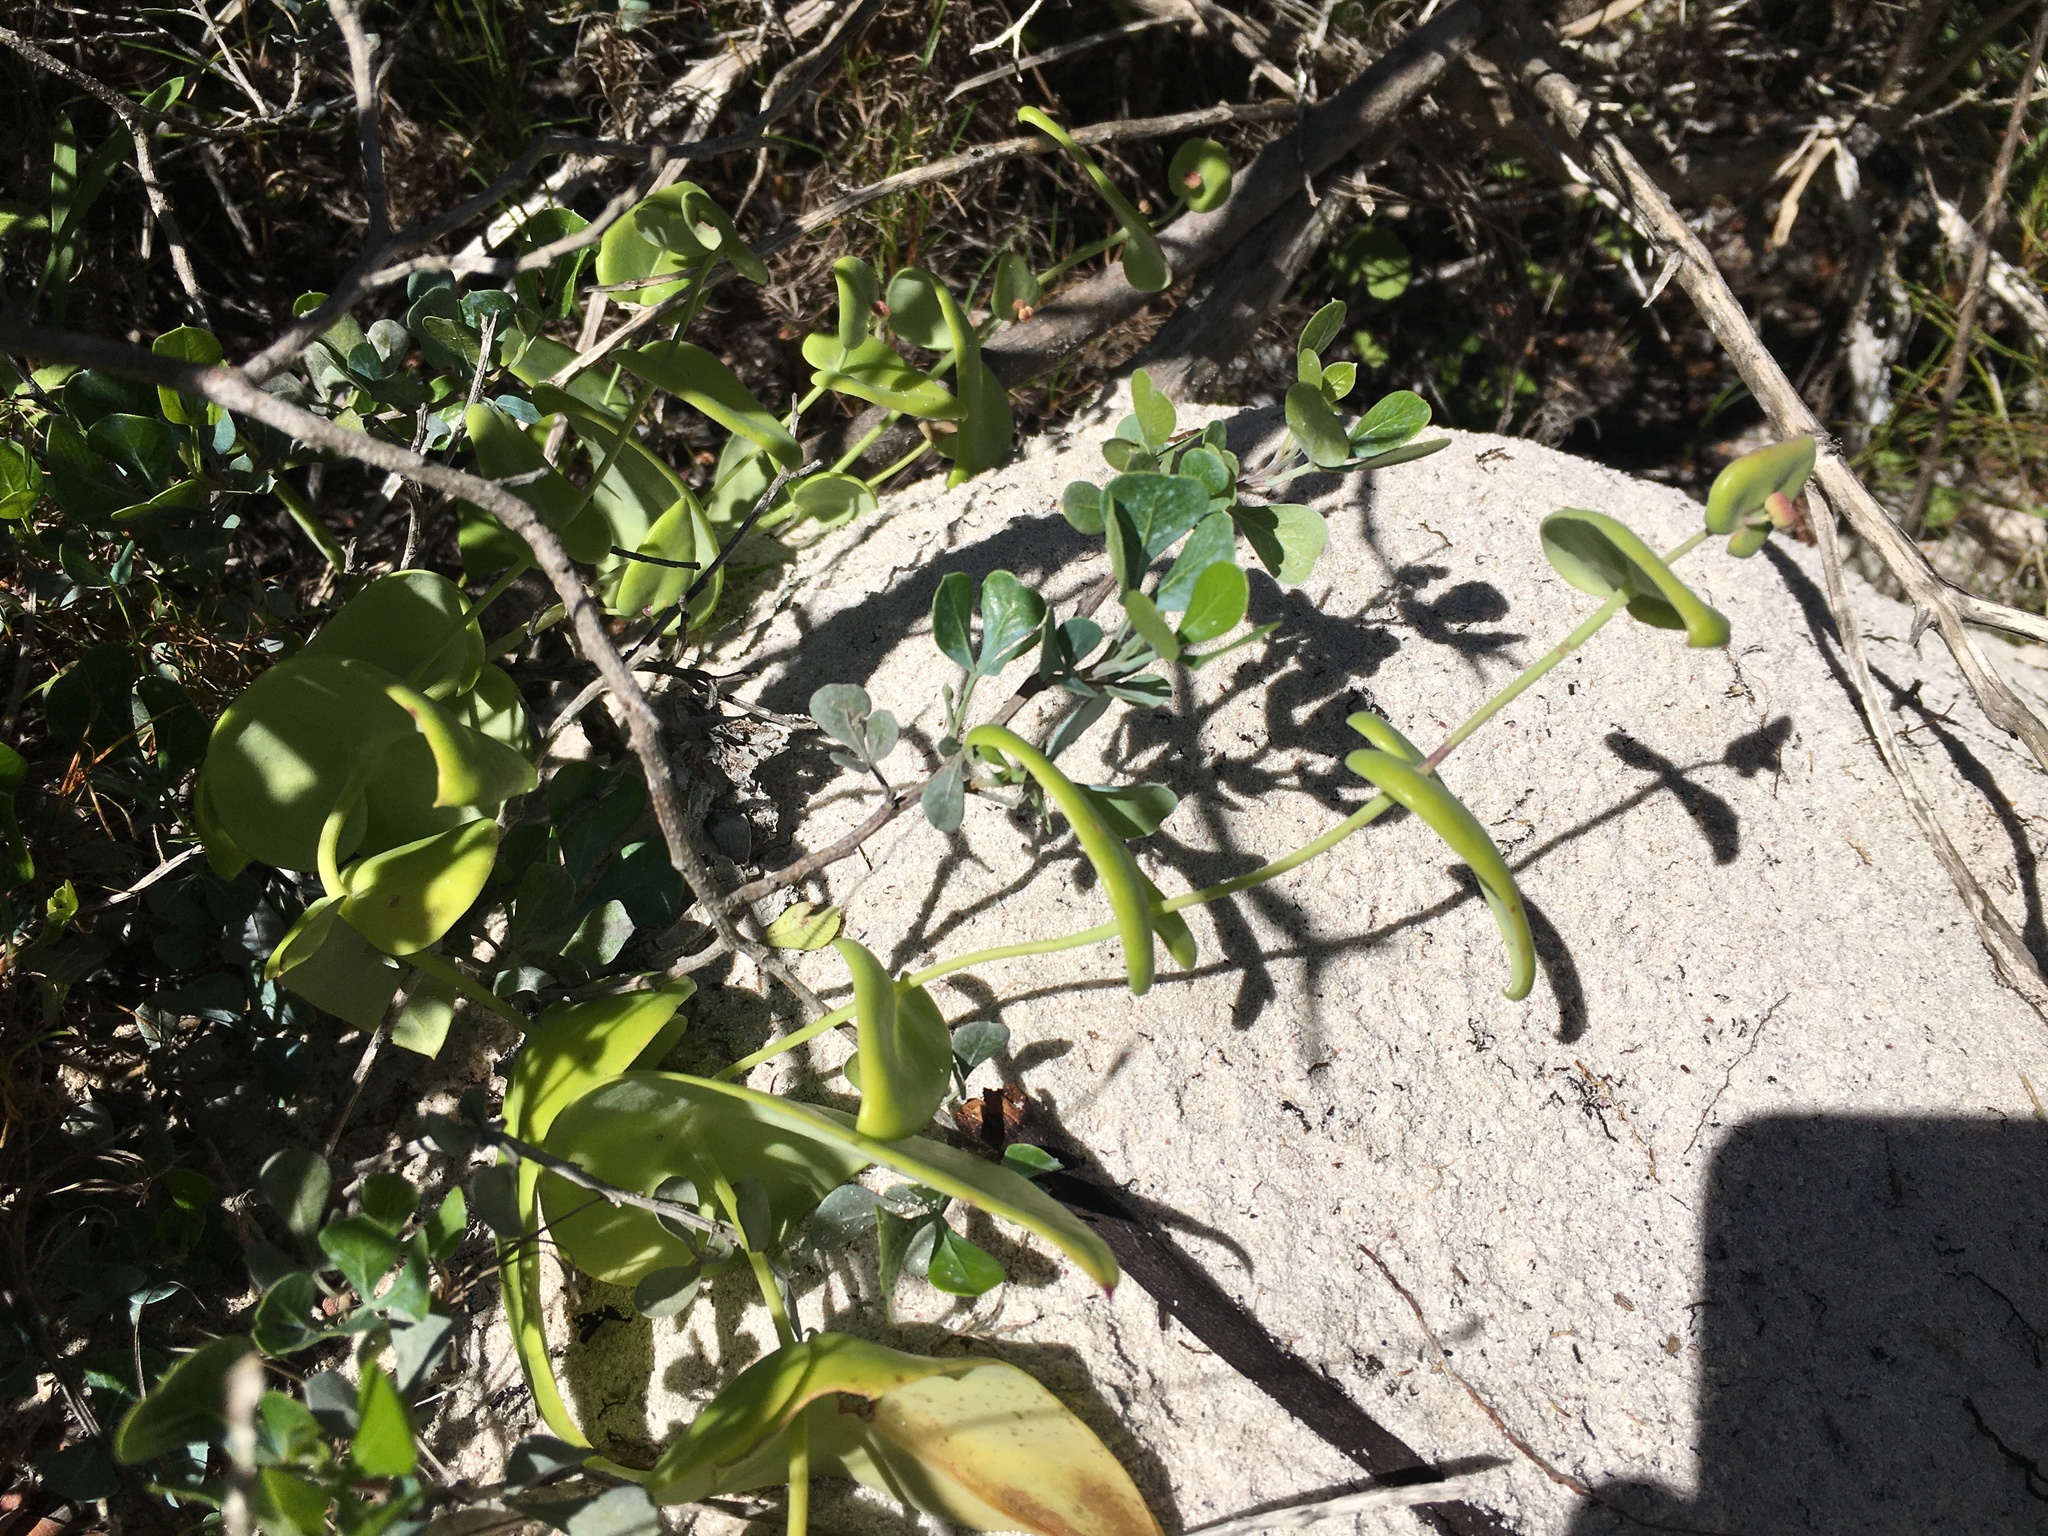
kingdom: Plantae
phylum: Tracheophyta
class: Magnoliopsida
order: Asterales
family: Asteraceae
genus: Othonna
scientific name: Othonna undulosa
